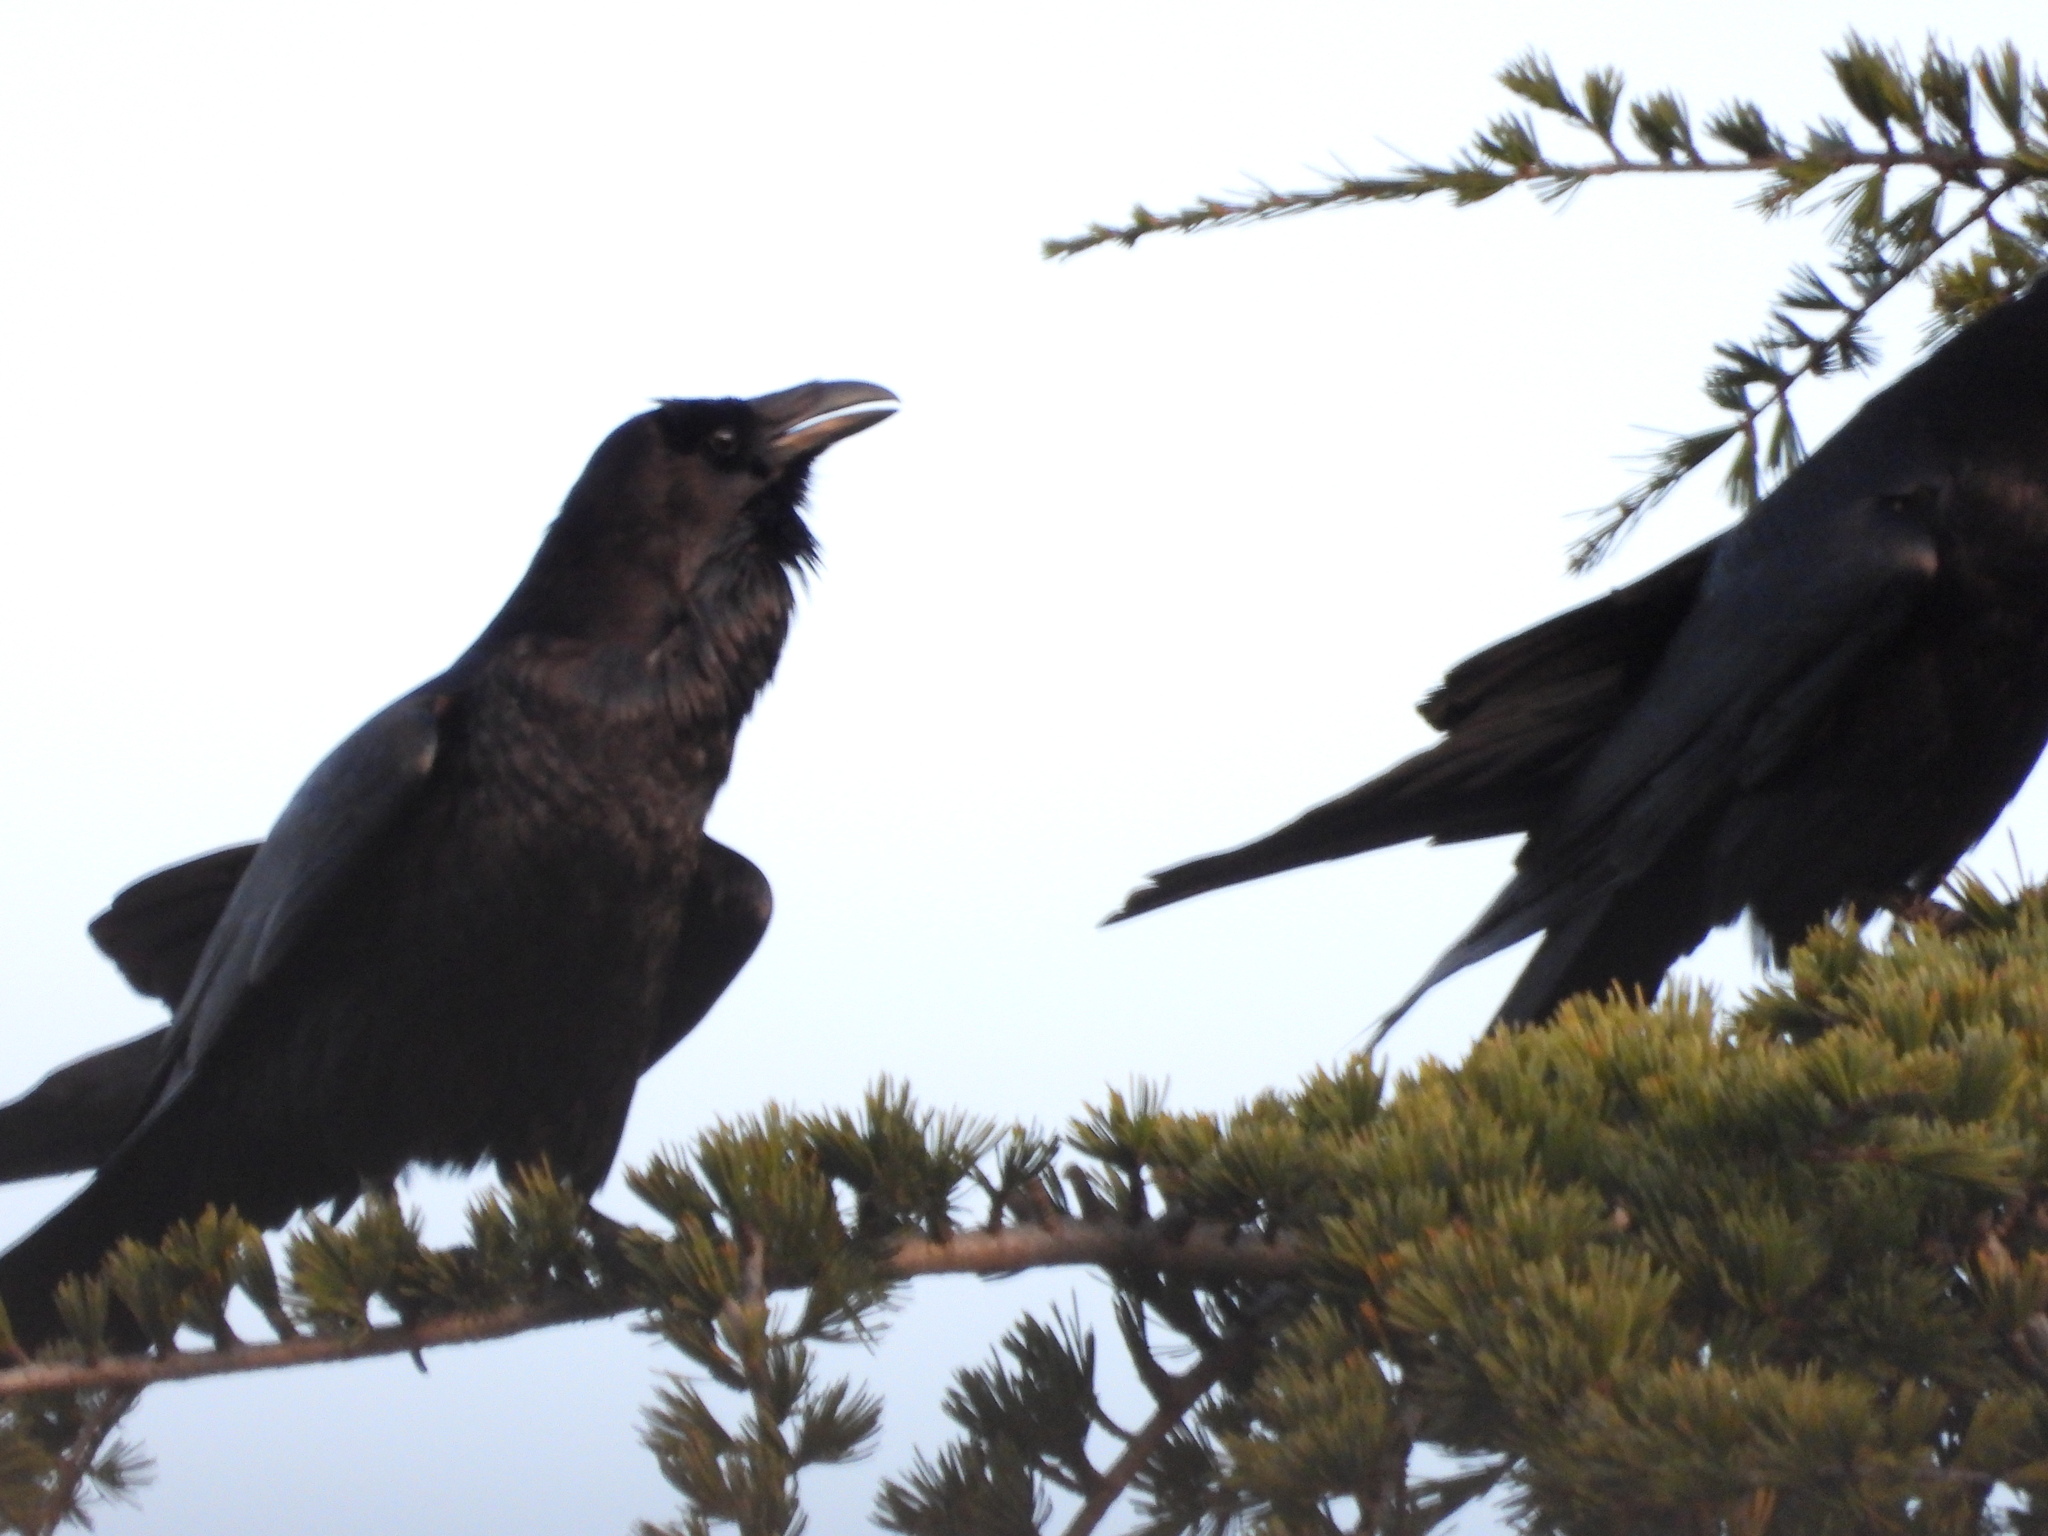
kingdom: Animalia
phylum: Chordata
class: Aves
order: Passeriformes
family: Corvidae
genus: Corvus
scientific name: Corvus corax
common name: Common raven
